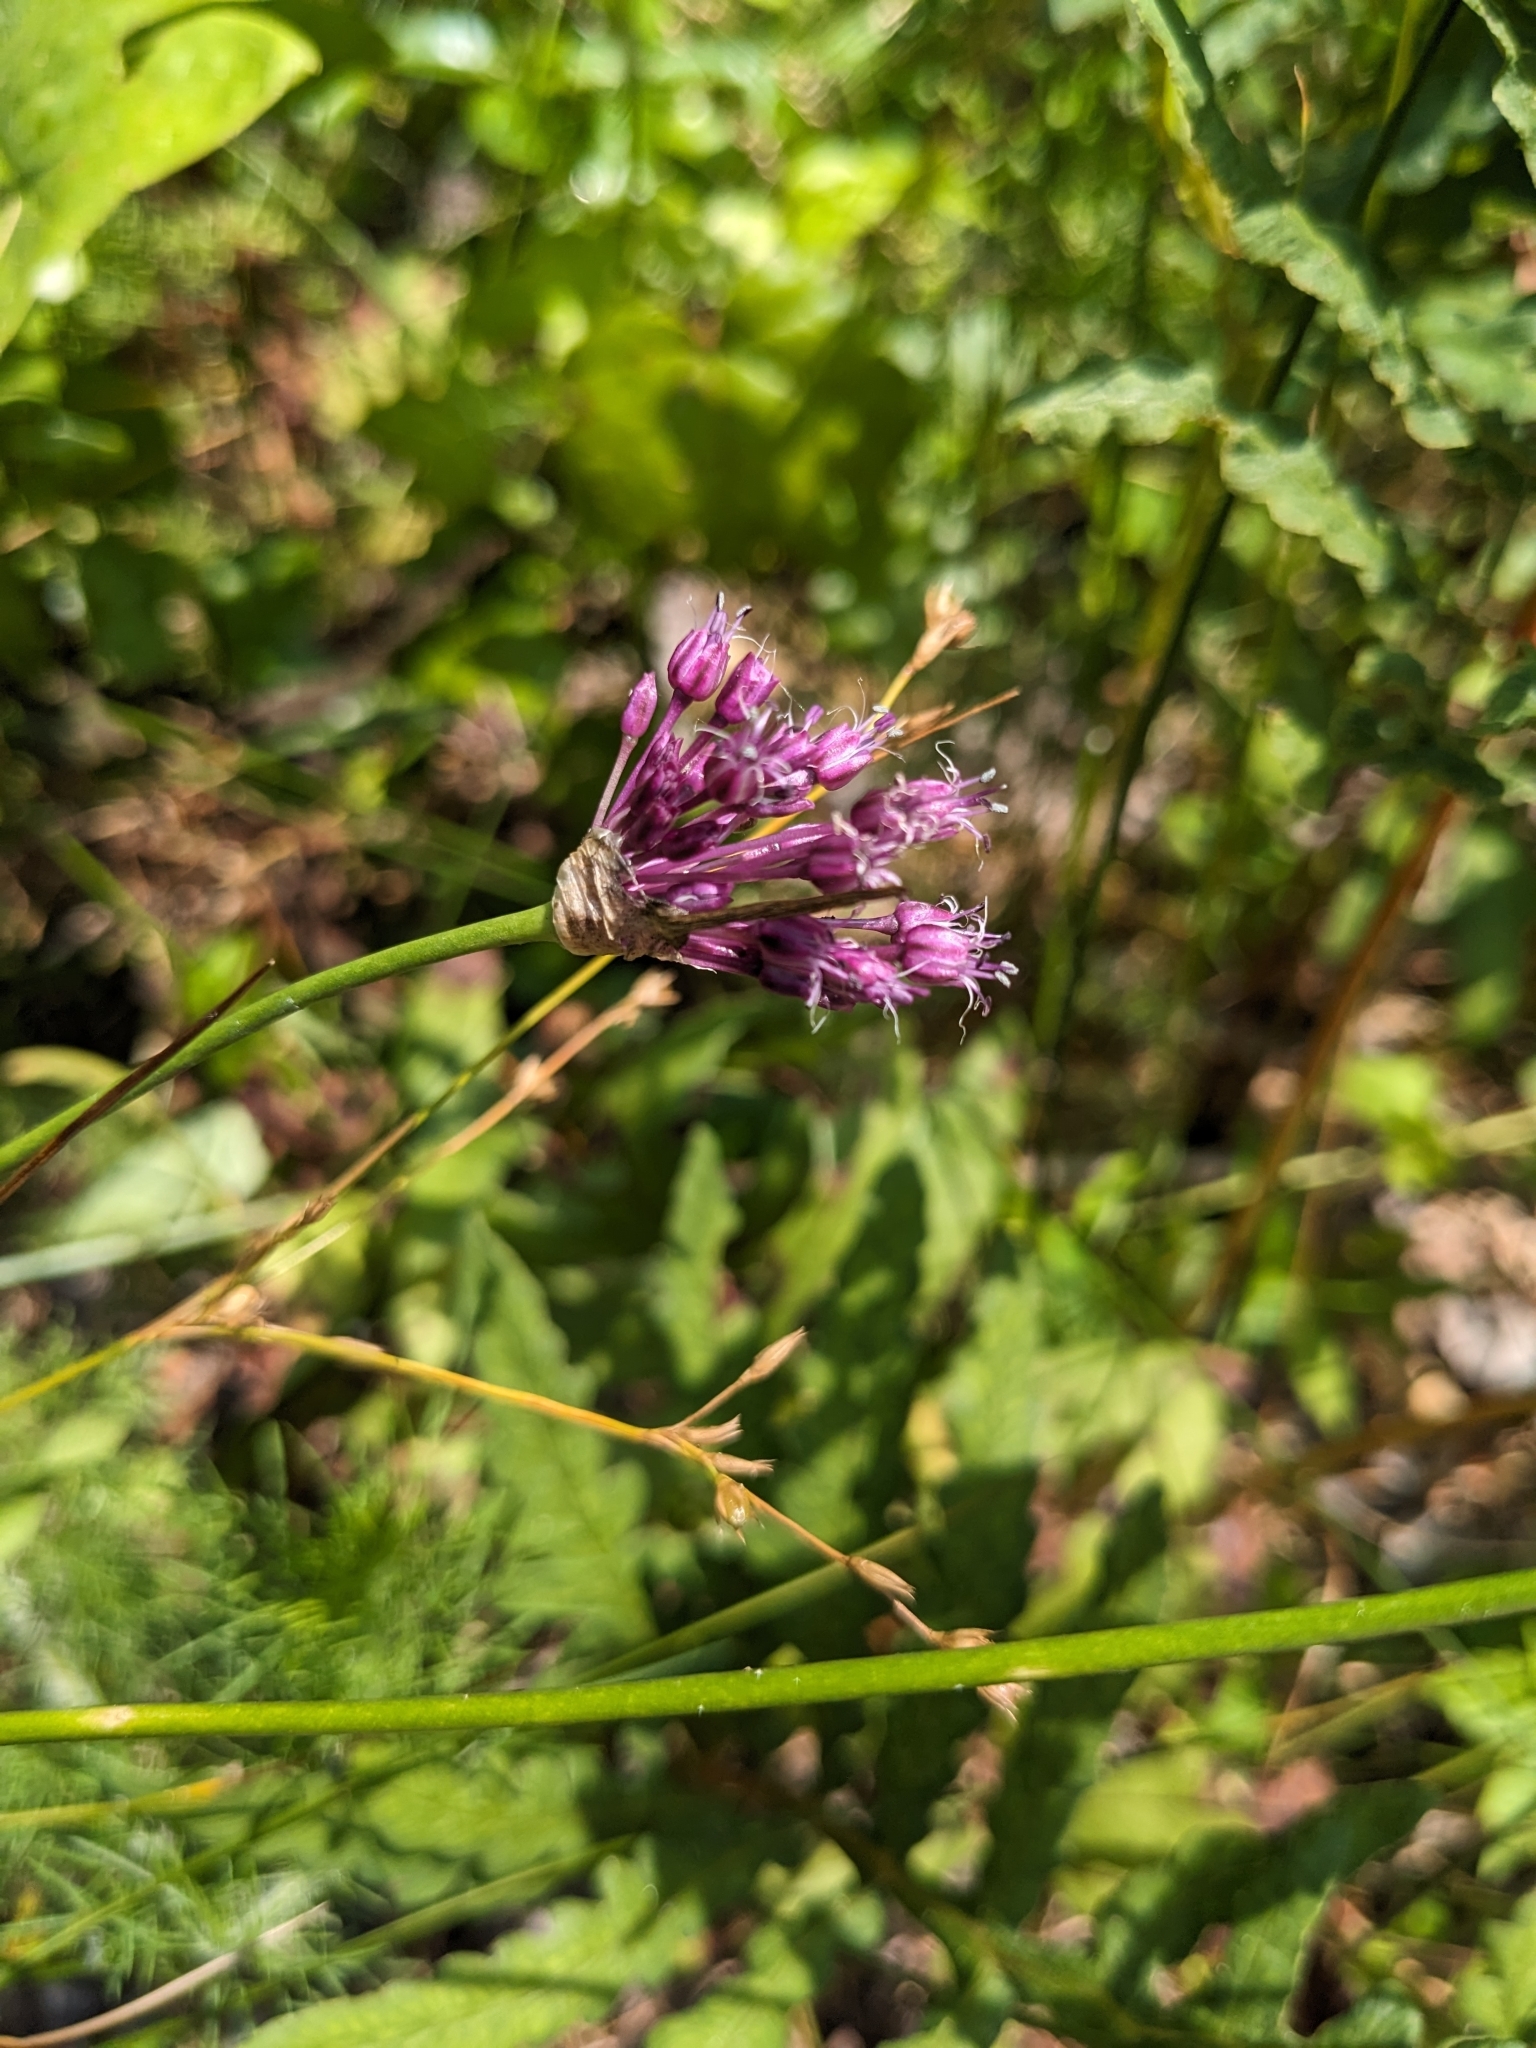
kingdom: Plantae
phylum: Tracheophyta
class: Liliopsida
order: Asparagales
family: Amaryllidaceae
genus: Allium
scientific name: Allium vineale
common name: Crow garlic
